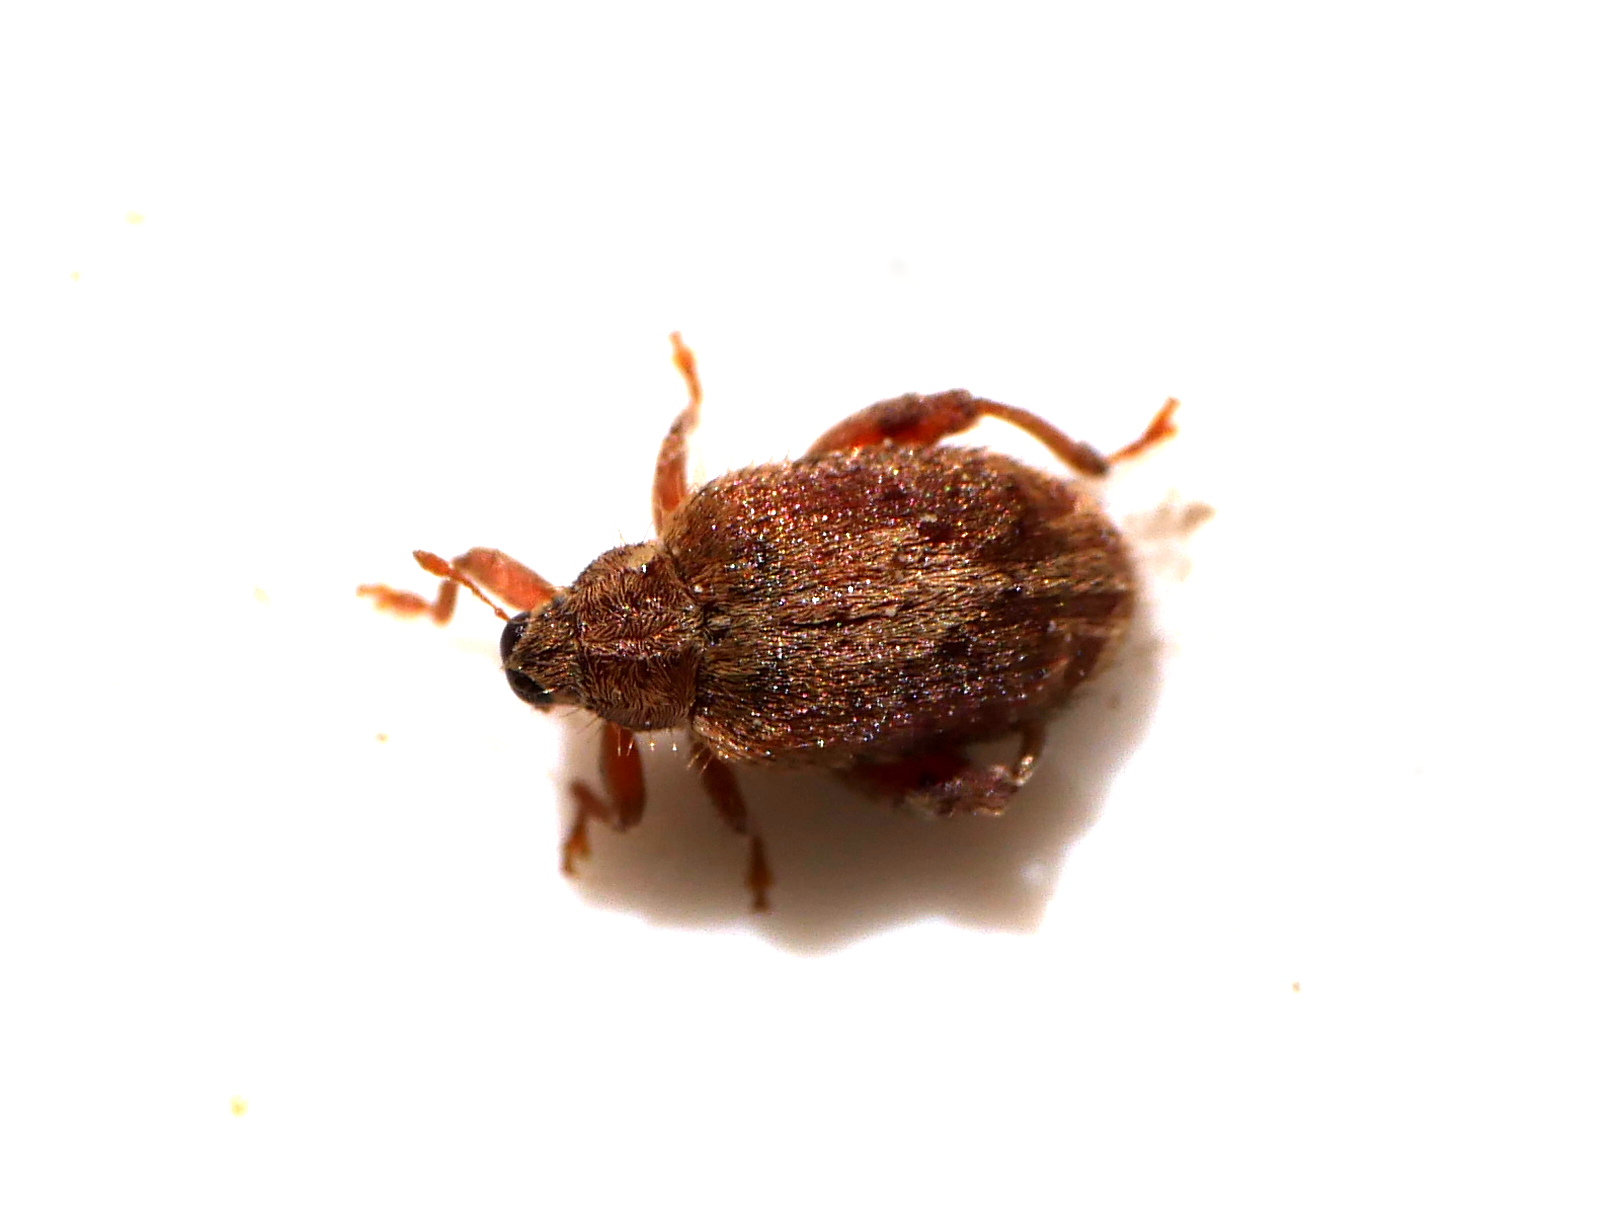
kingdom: Animalia
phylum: Arthropoda
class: Insecta
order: Coleoptera
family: Curculionidae
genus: Orchestes
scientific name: Orchestes quercus
